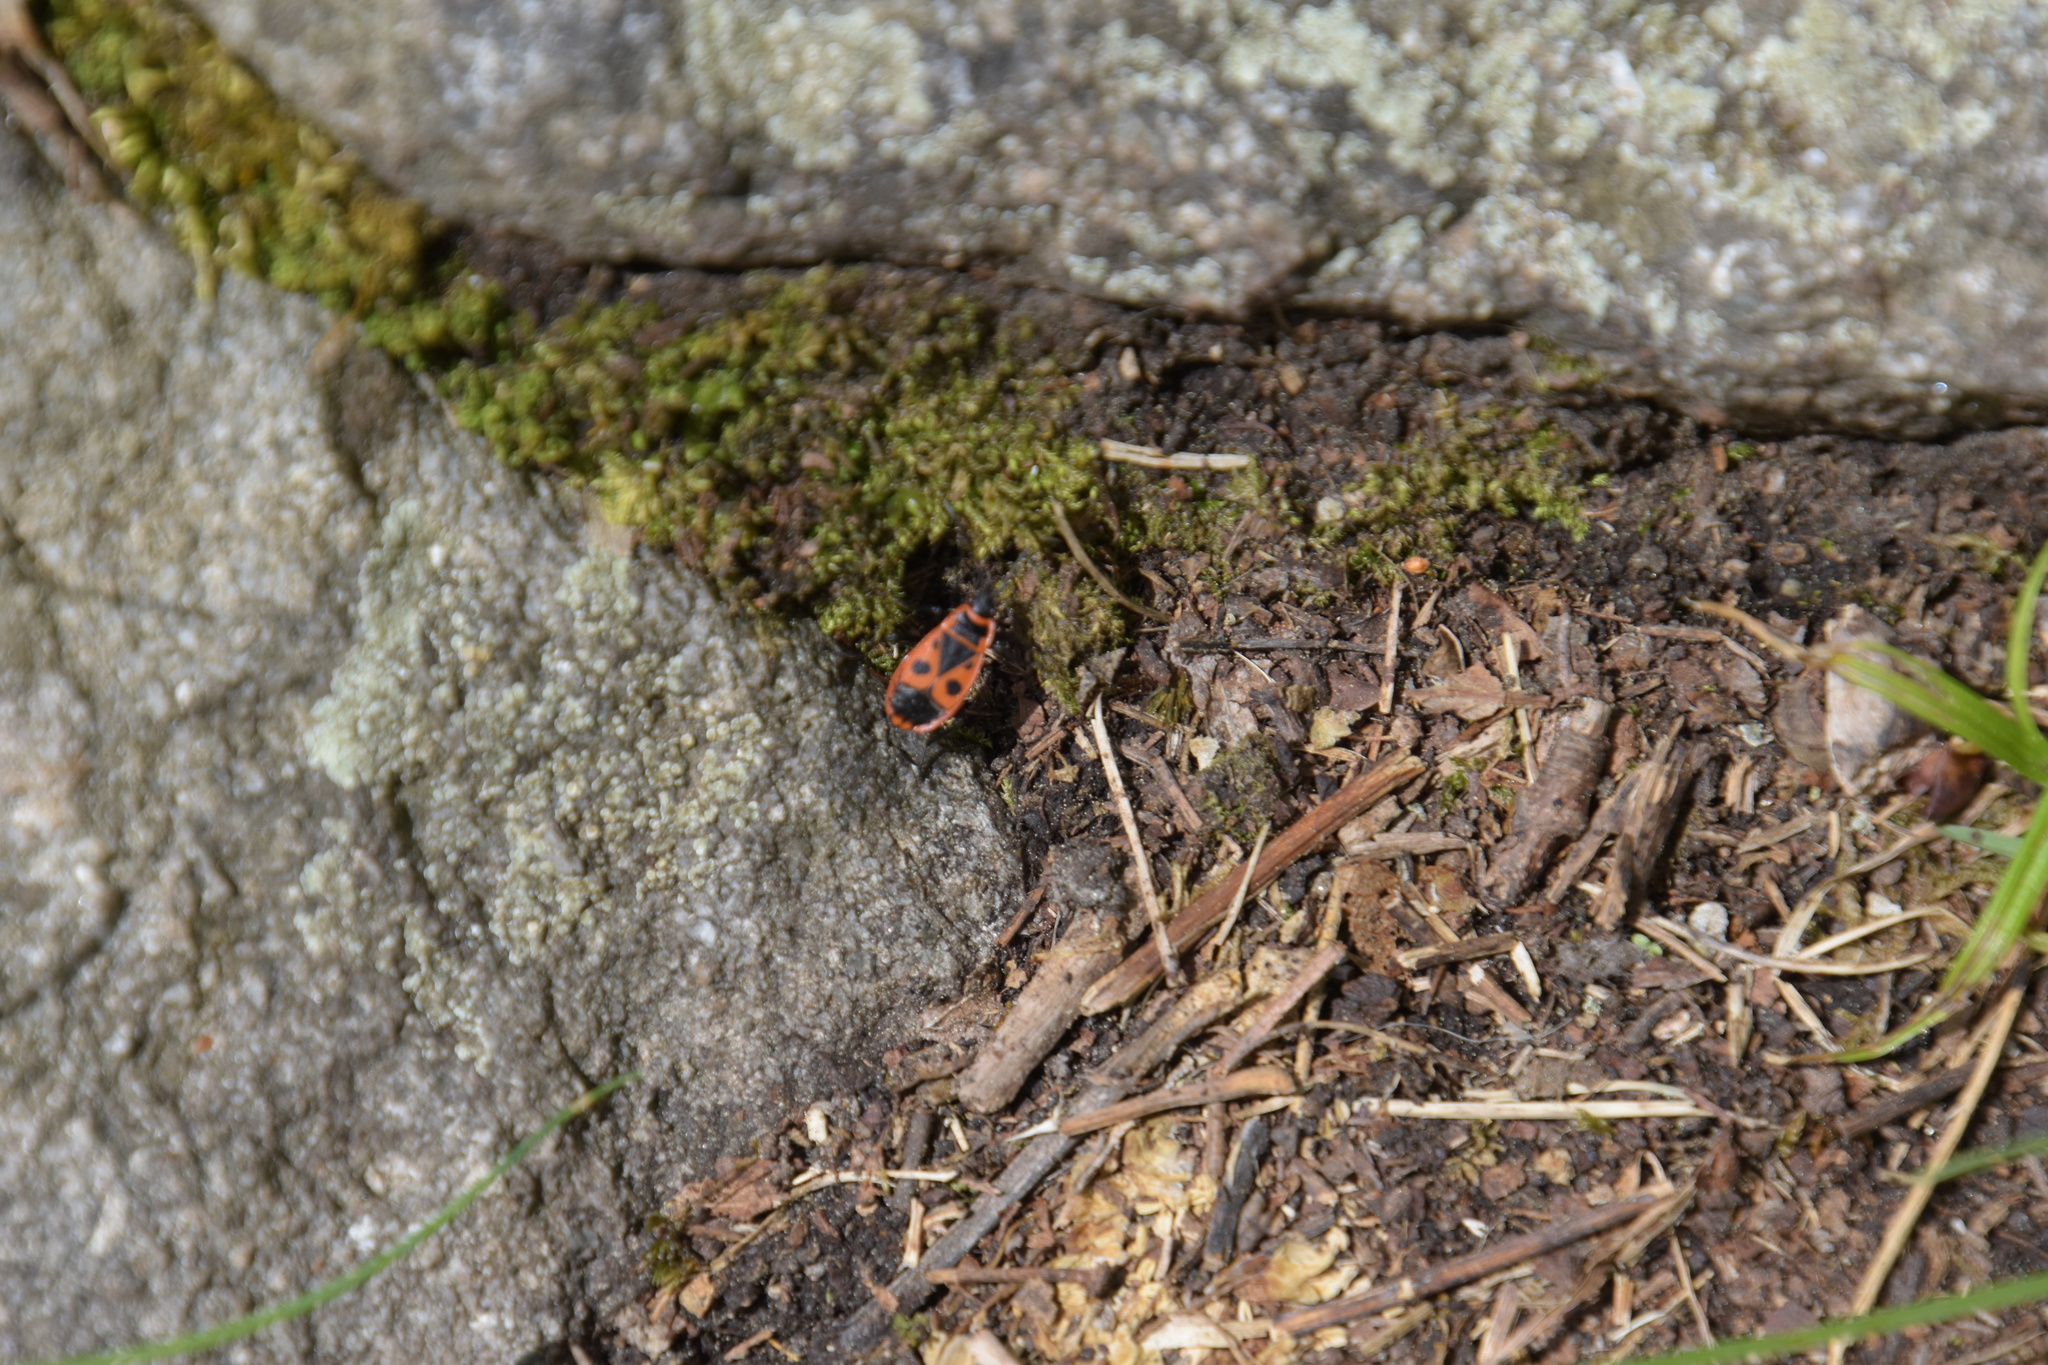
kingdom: Animalia
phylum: Arthropoda
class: Insecta
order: Hemiptera
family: Pyrrhocoridae
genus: Pyrrhocoris
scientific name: Pyrrhocoris apterus
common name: Firebug
